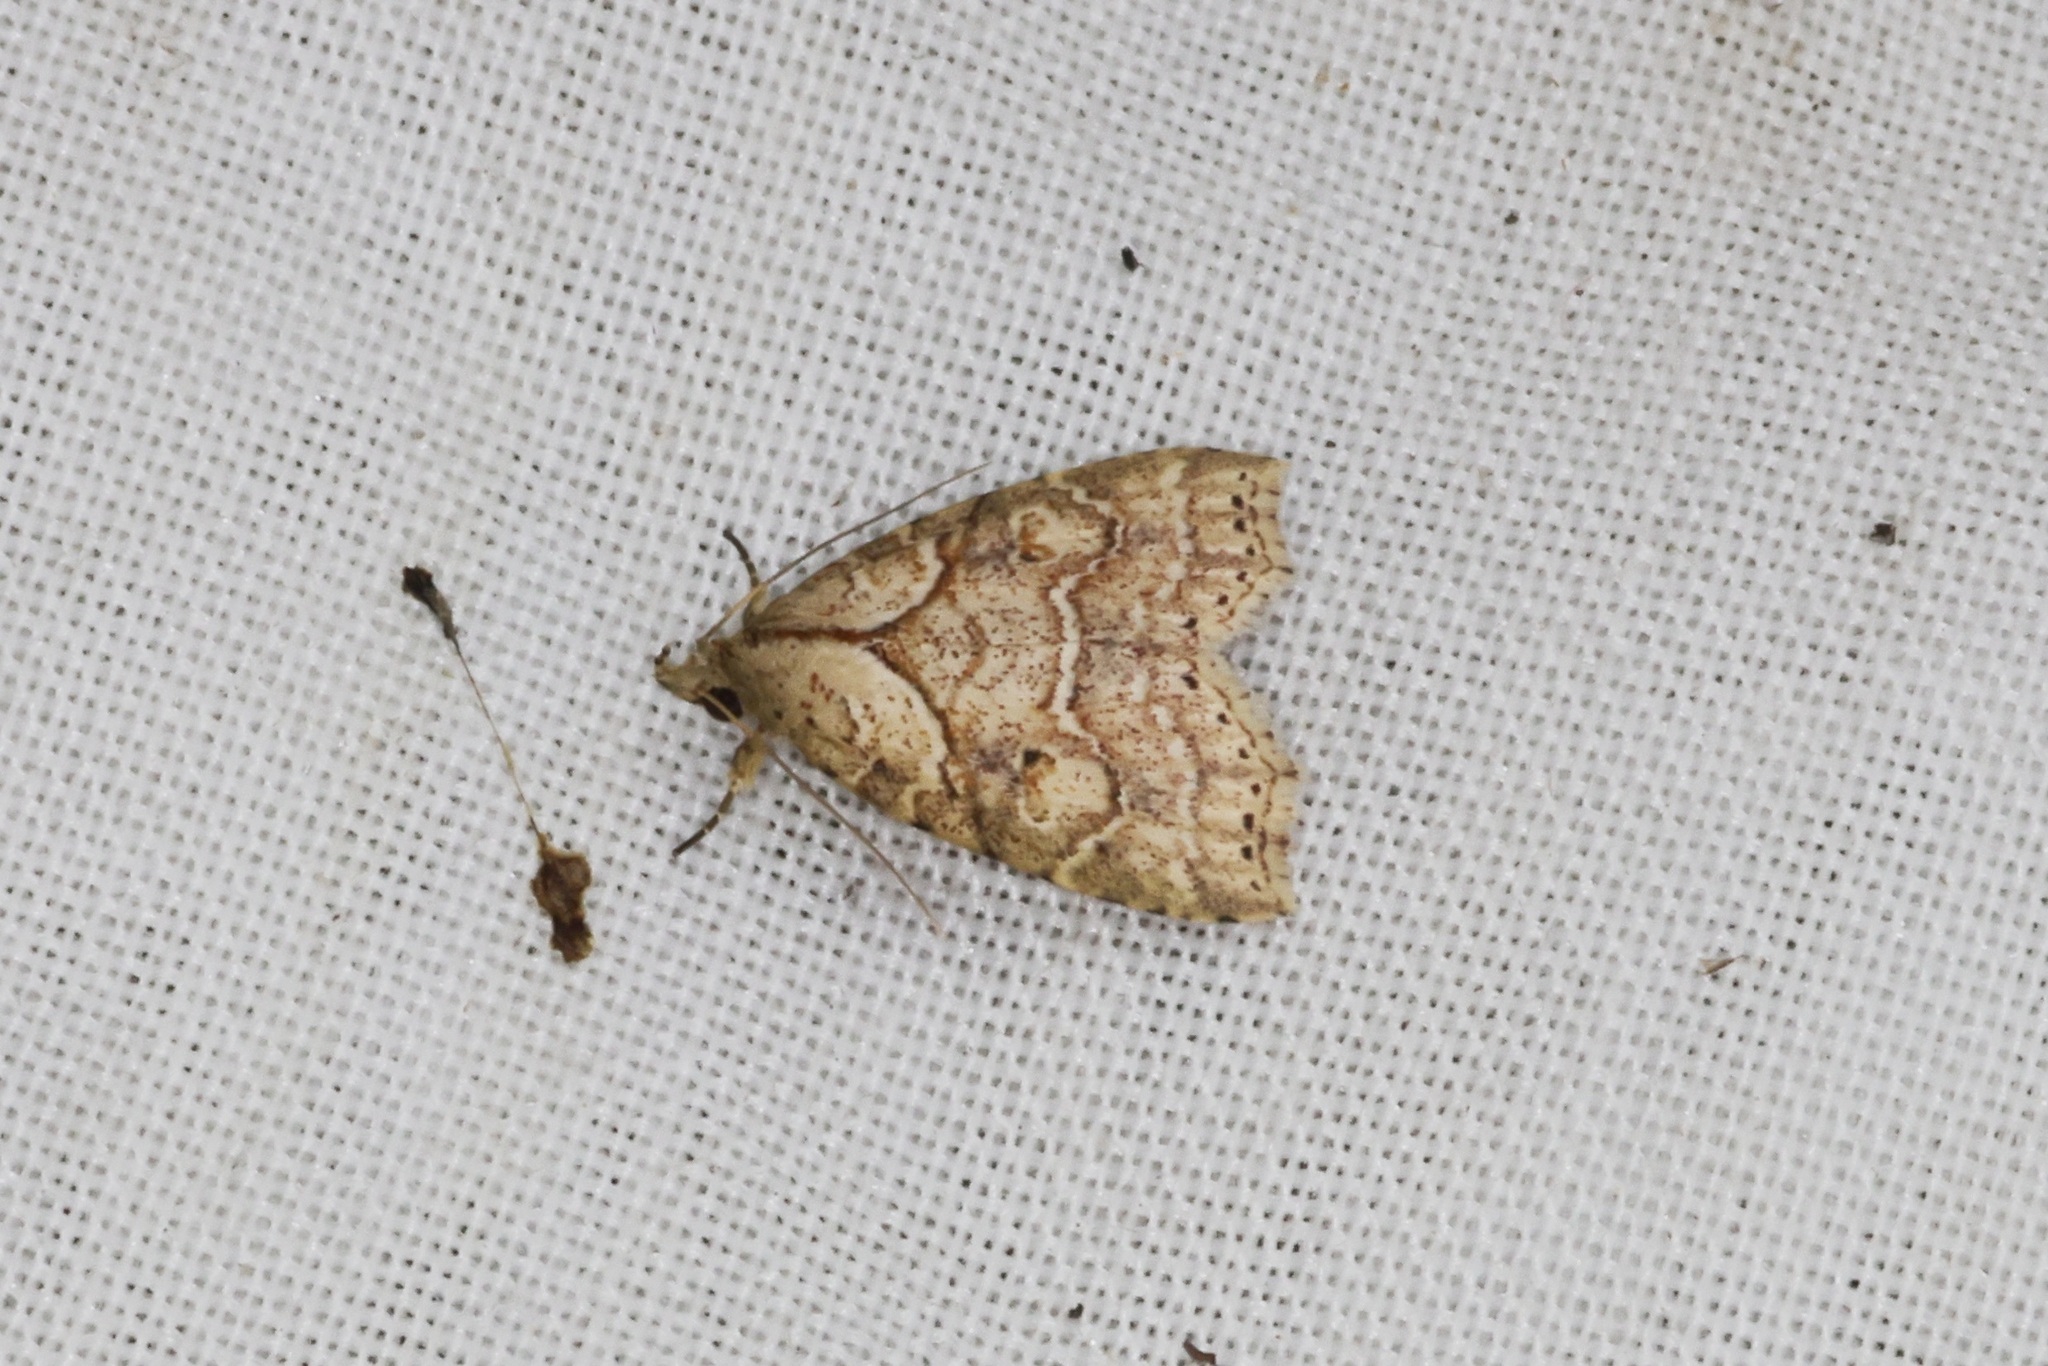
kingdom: Animalia
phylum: Arthropoda
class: Insecta
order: Lepidoptera
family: Erebidae
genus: Olulis
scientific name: Olulis puncticinctalis
